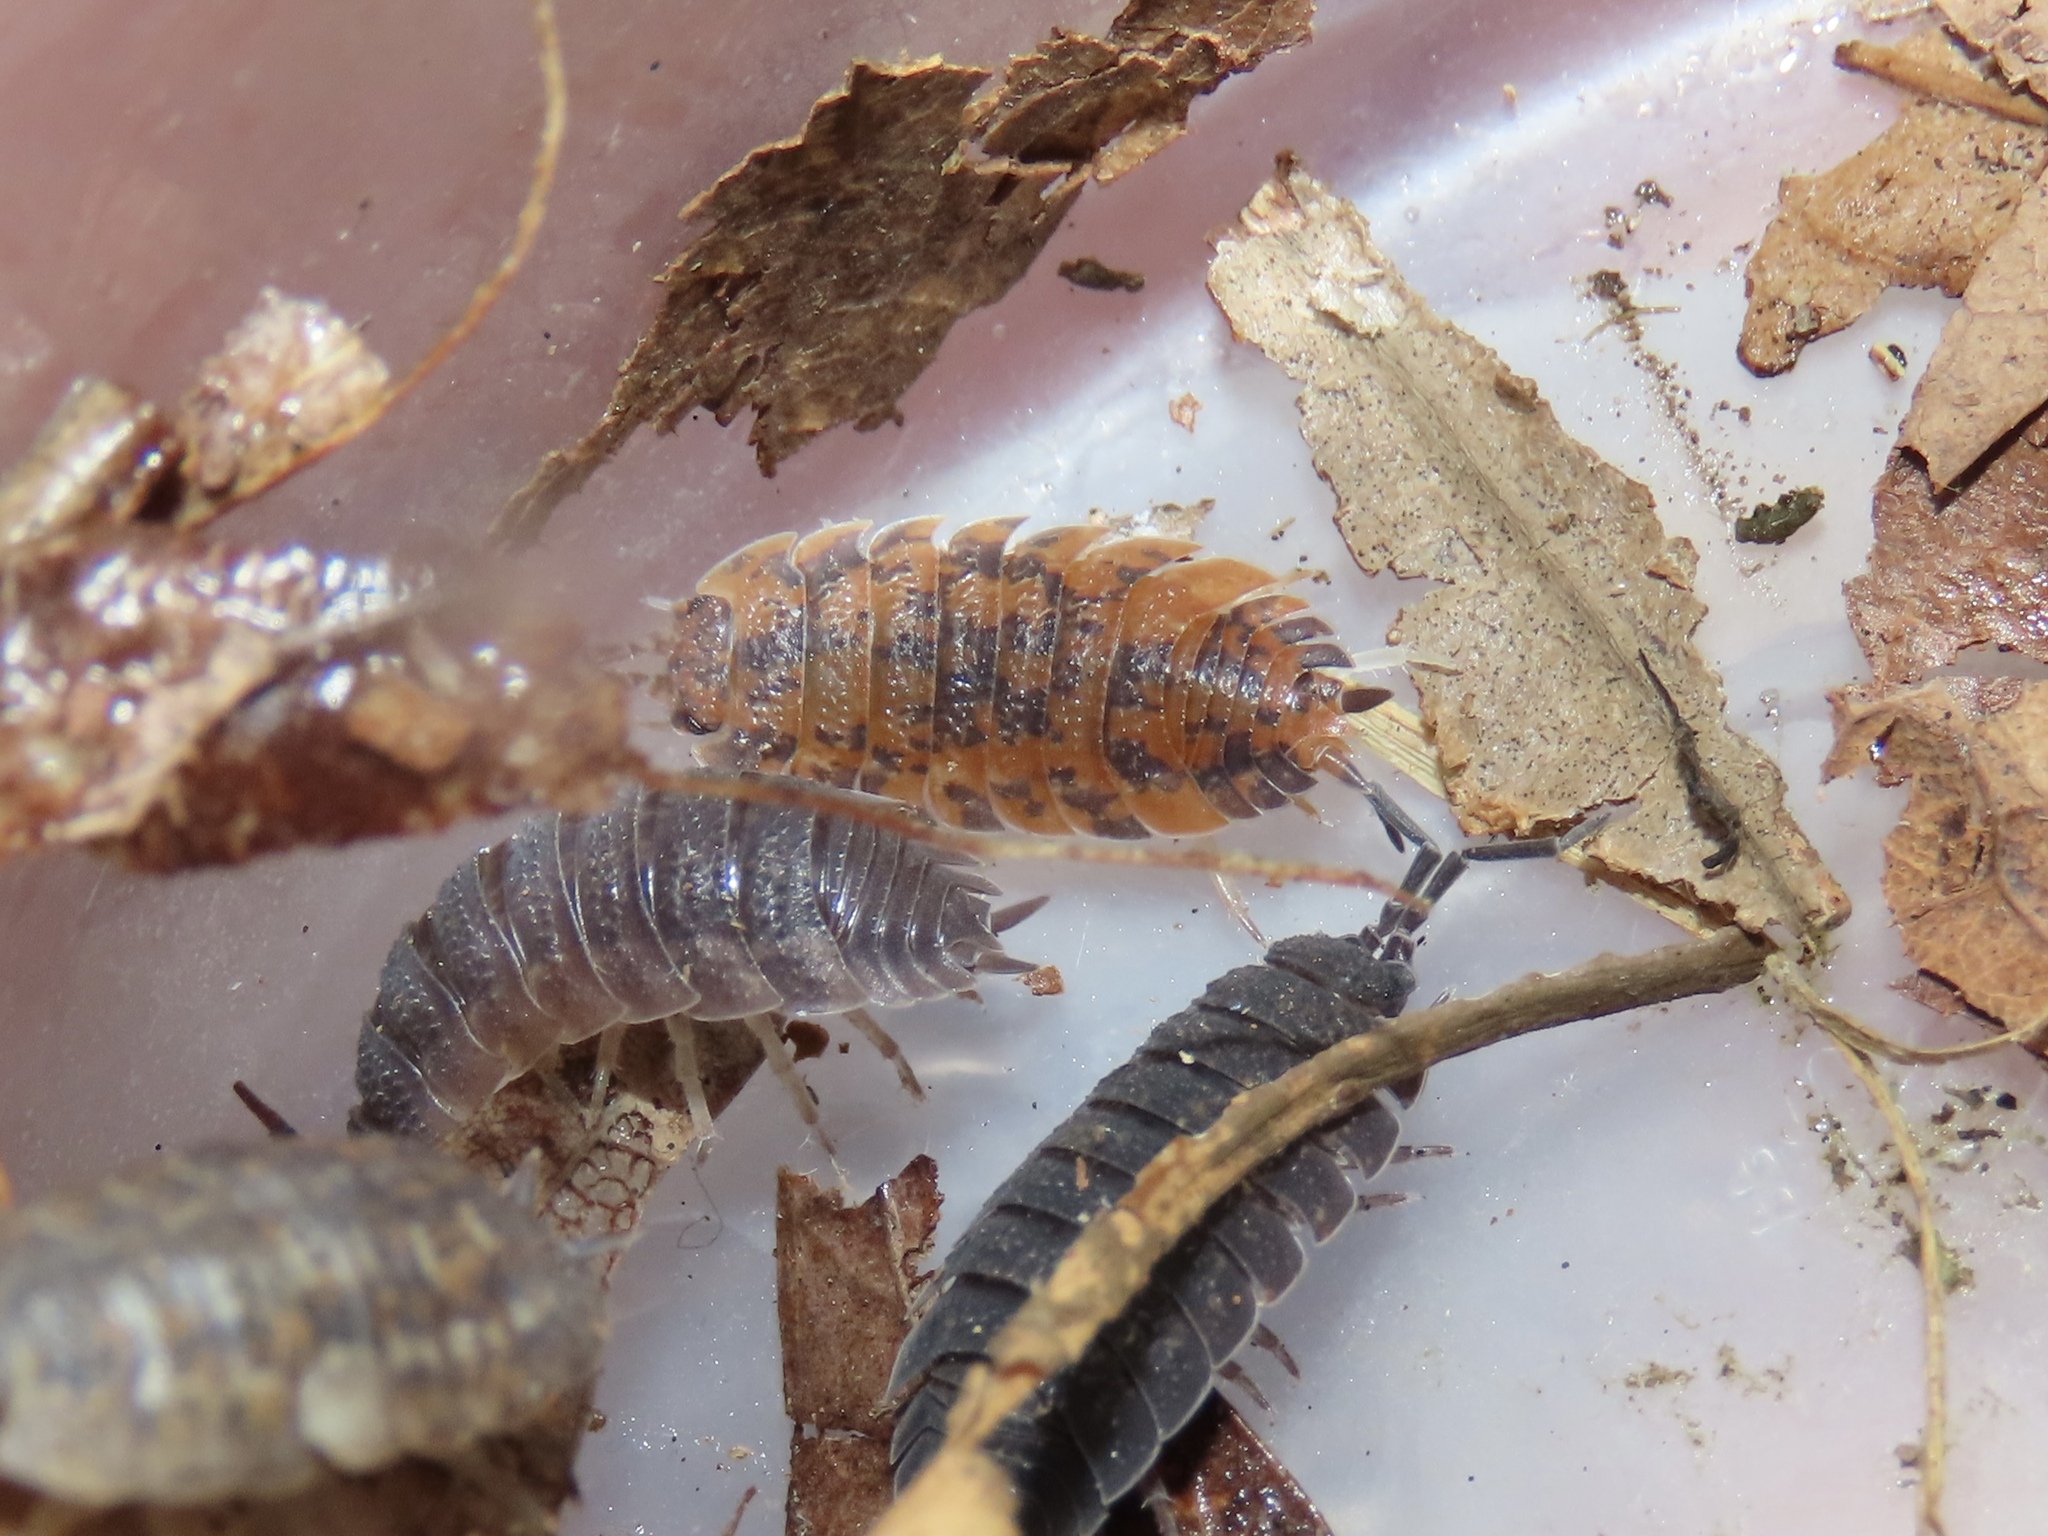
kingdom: Animalia
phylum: Arthropoda
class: Malacostraca
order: Isopoda
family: Porcellionidae
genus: Porcellio
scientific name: Porcellio scaber
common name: Common rough woodlouse
